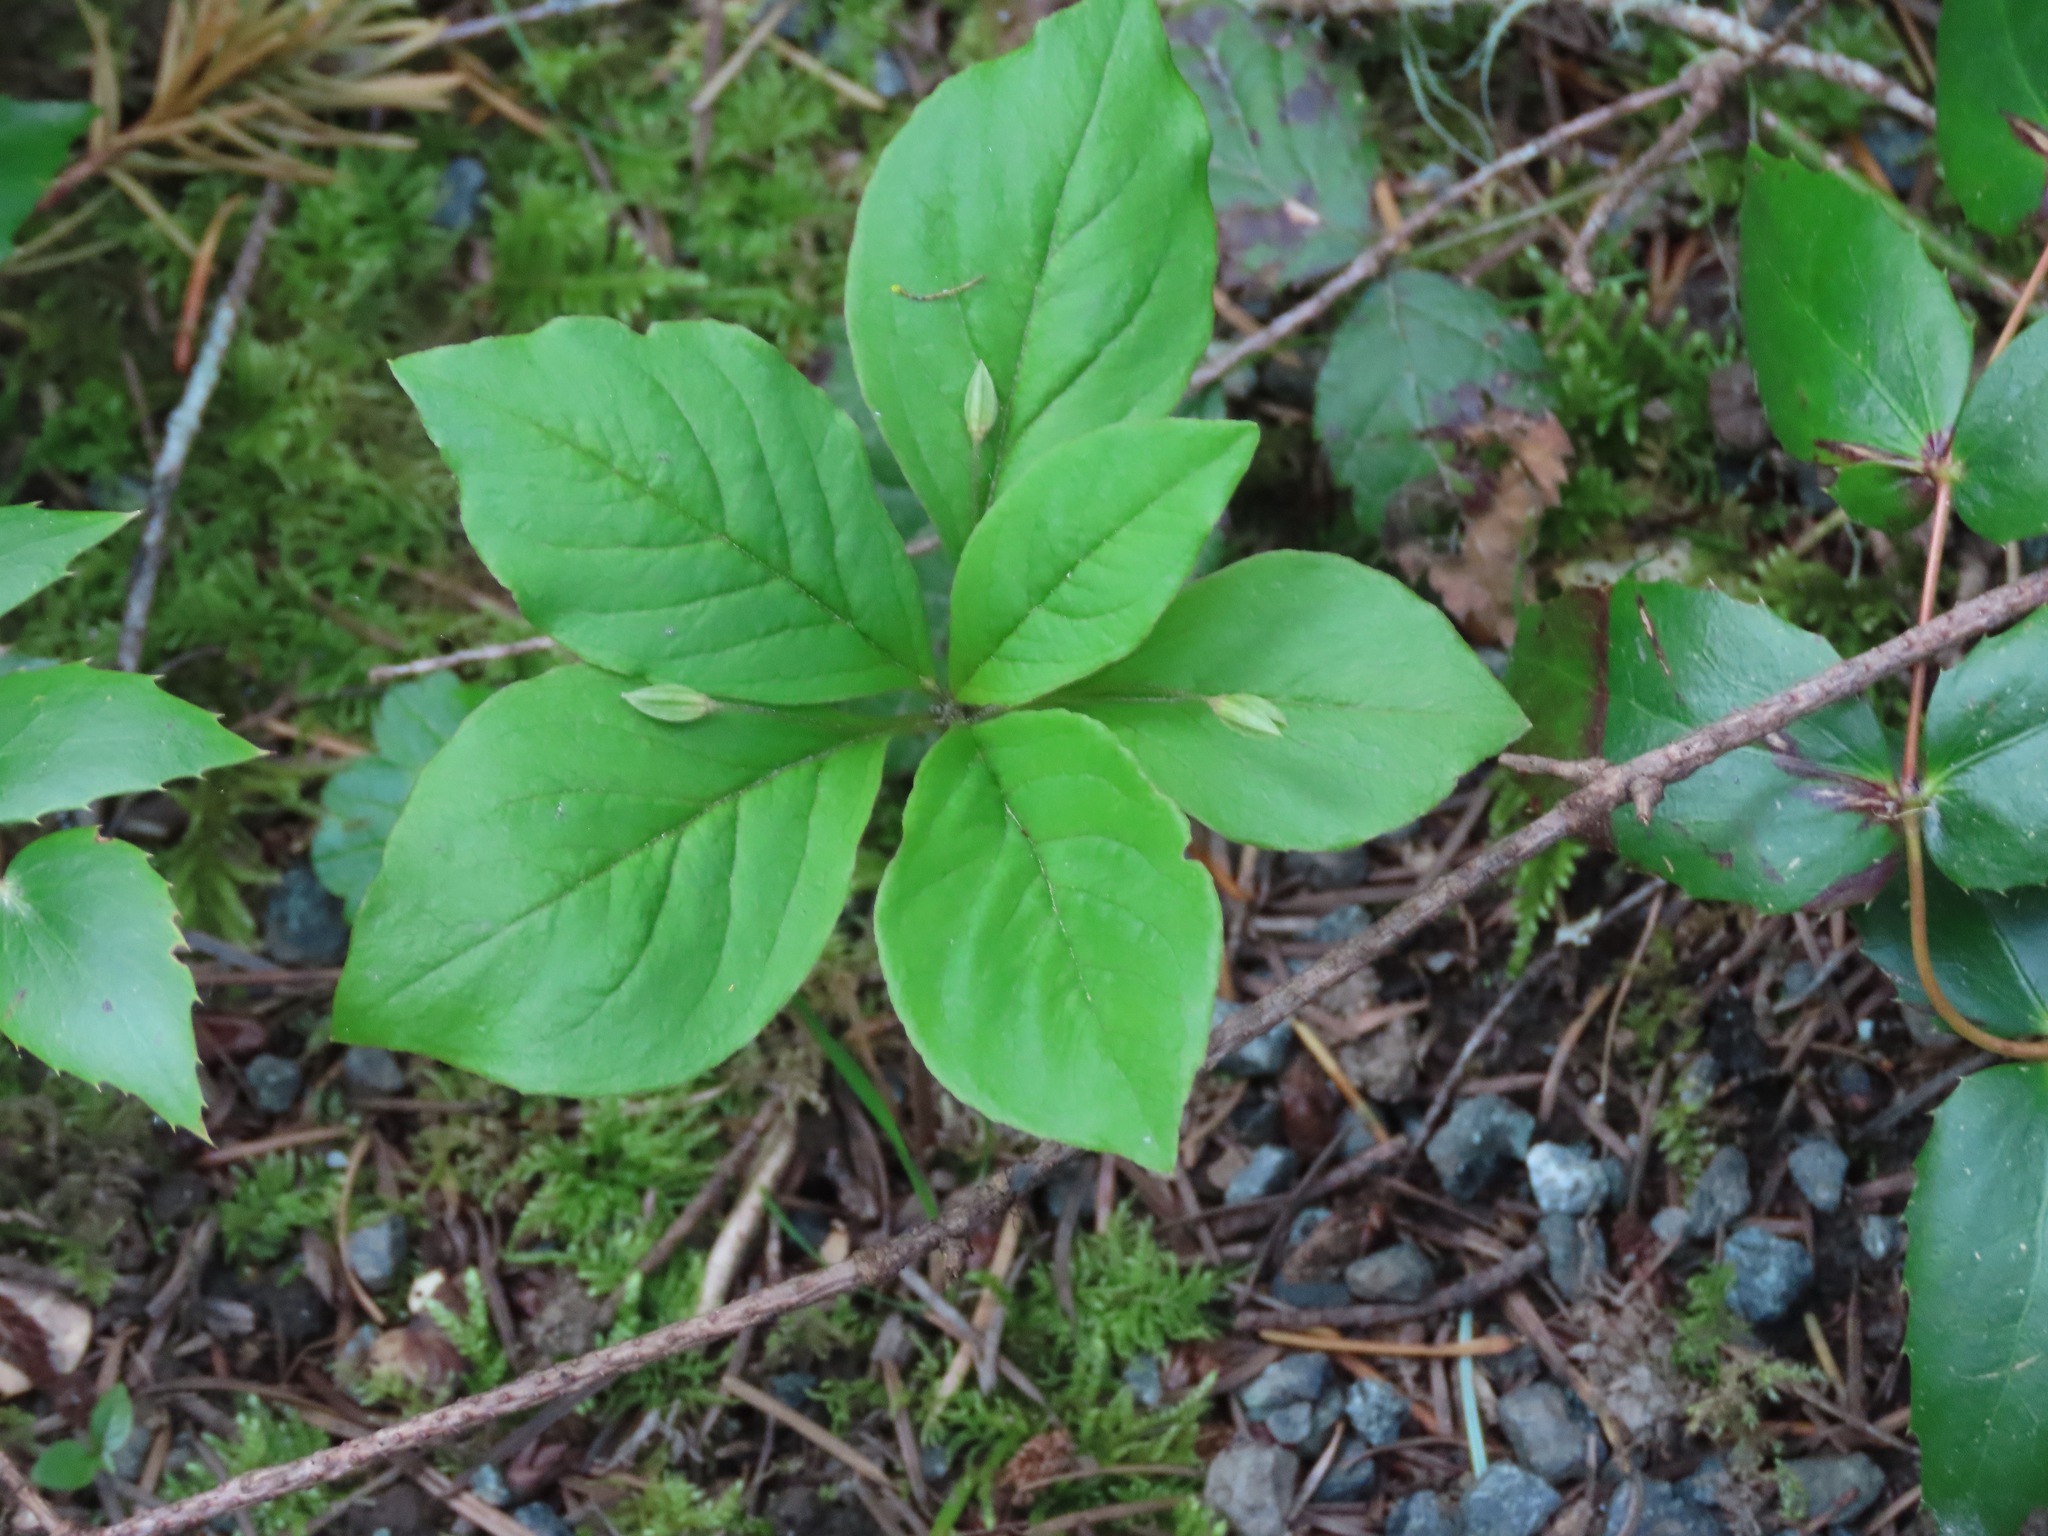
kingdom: Plantae
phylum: Tracheophyta
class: Magnoliopsida
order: Ericales
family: Primulaceae
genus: Lysimachia
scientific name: Lysimachia latifolia
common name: Pacific starflower
